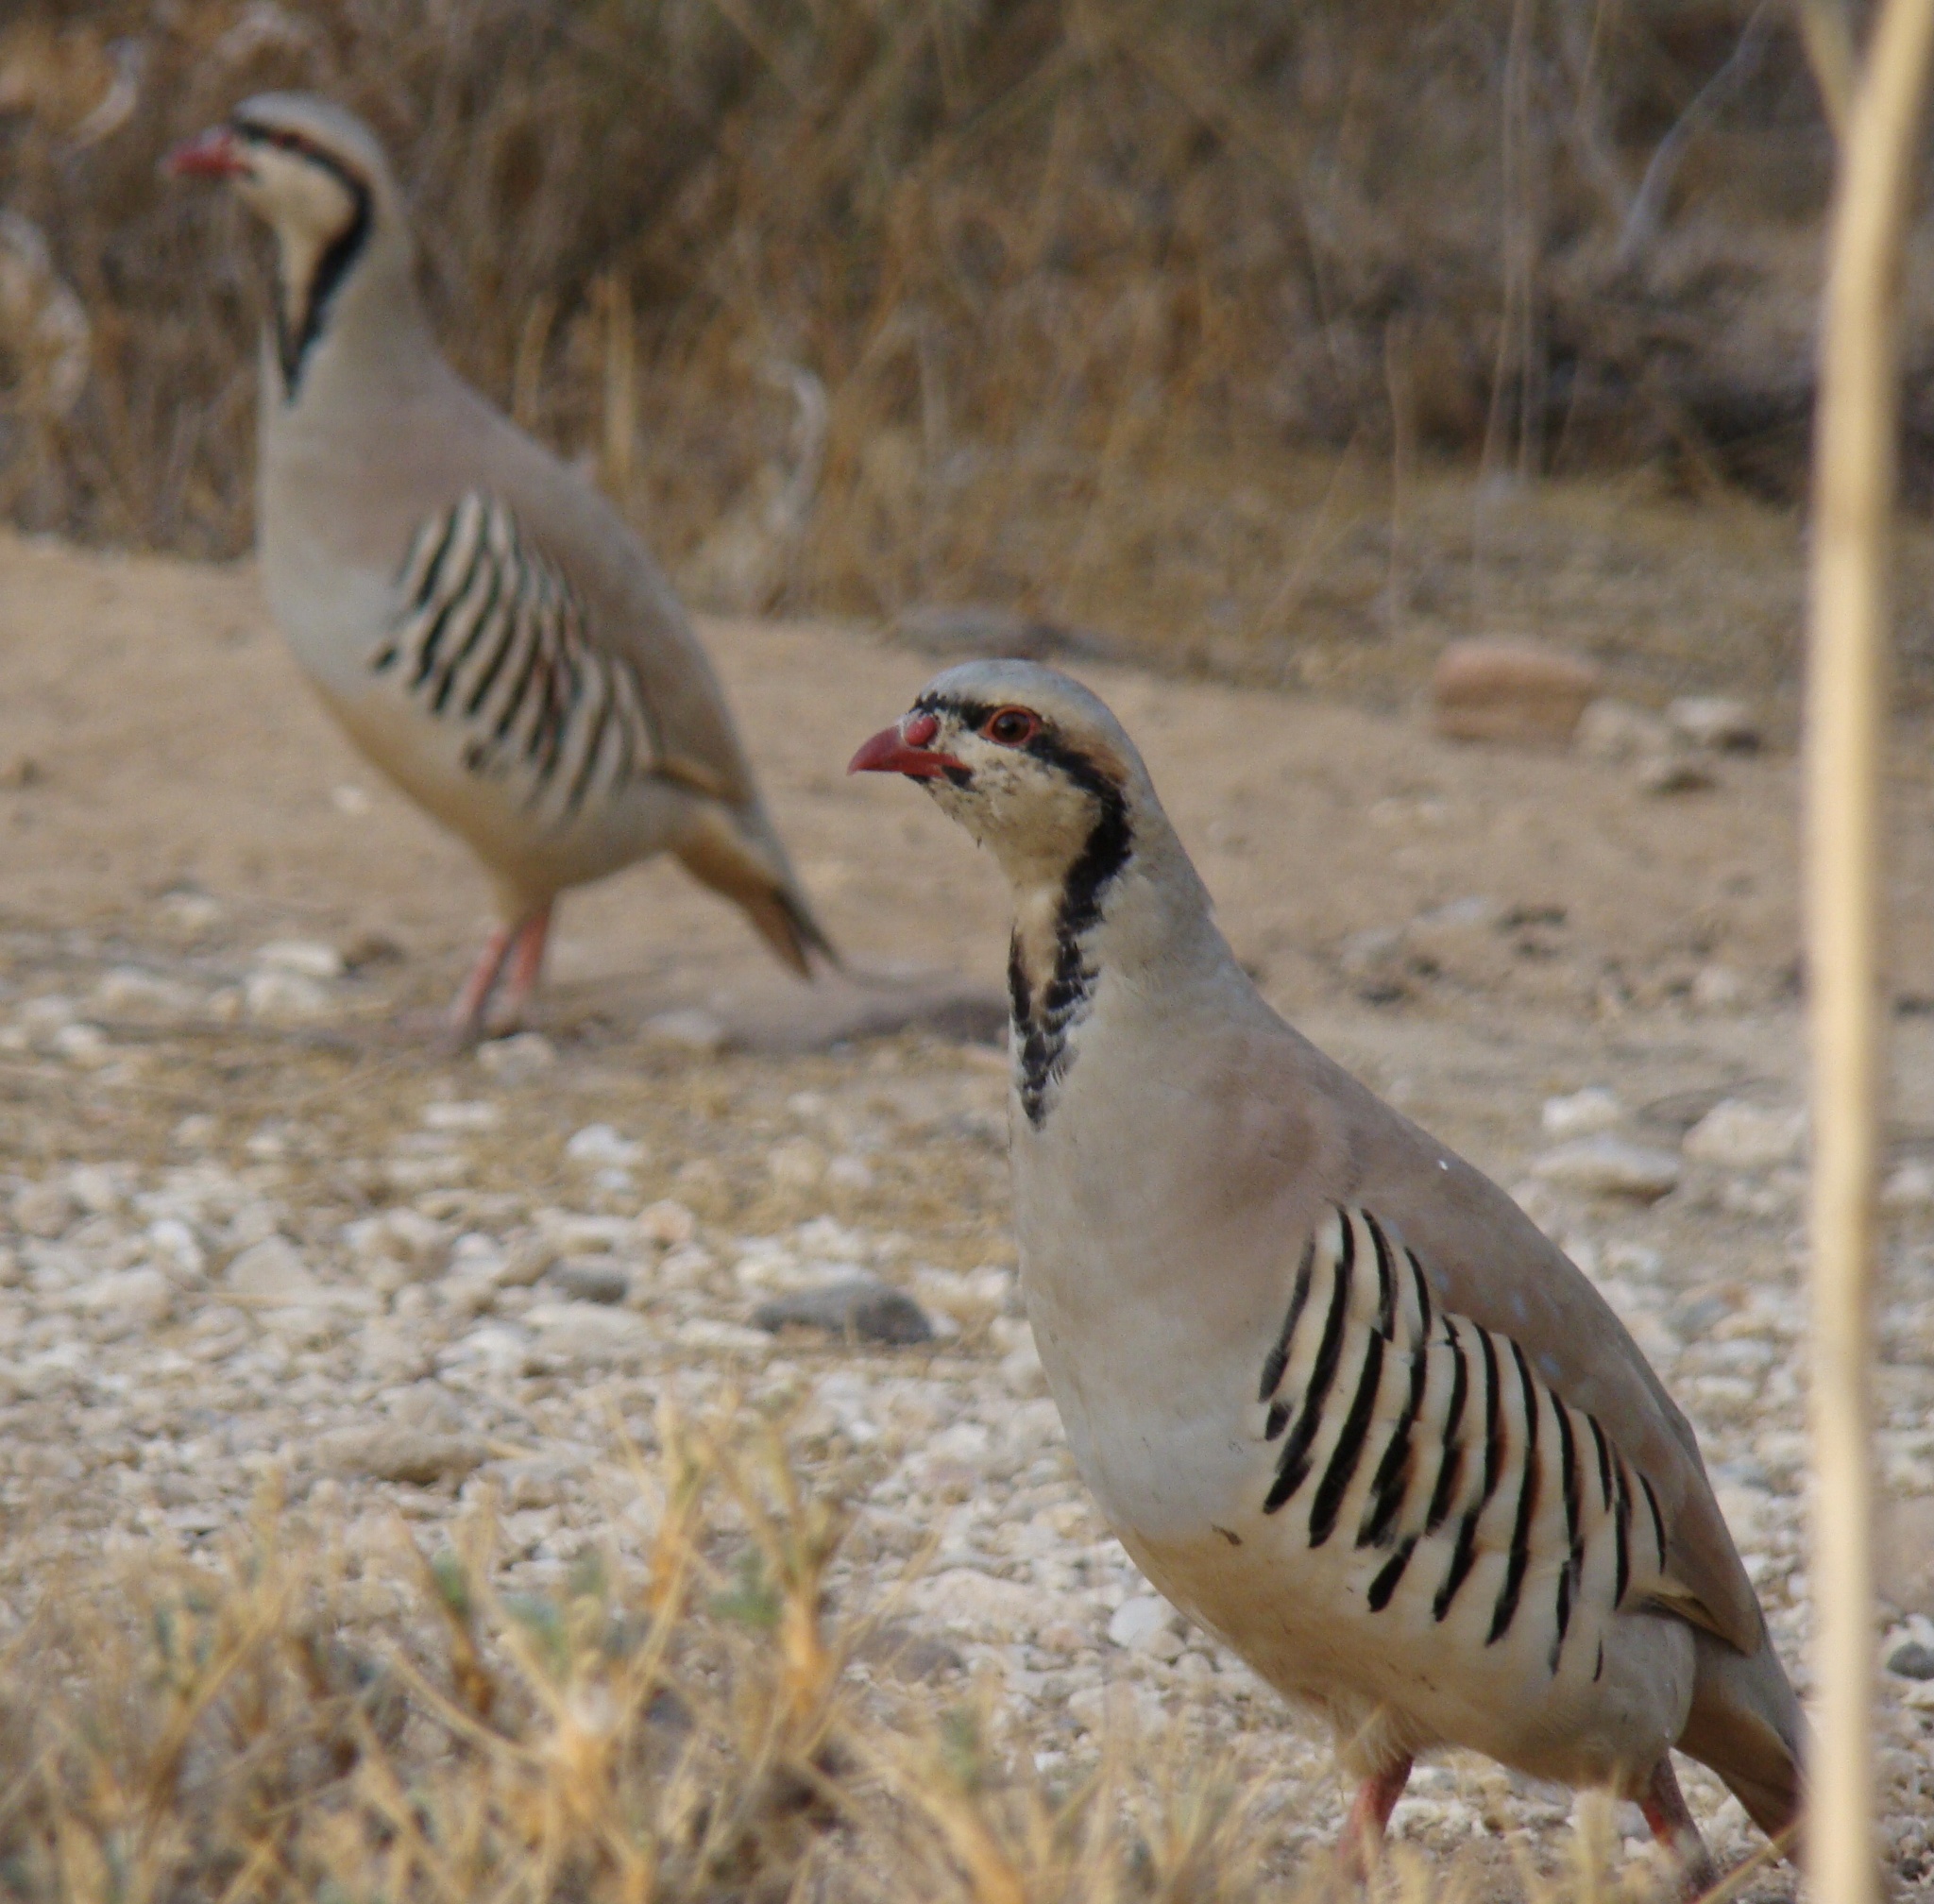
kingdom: Animalia
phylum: Chordata
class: Aves
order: Galliformes
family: Phasianidae
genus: Alectoris
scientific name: Alectoris chukar
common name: Chukar
